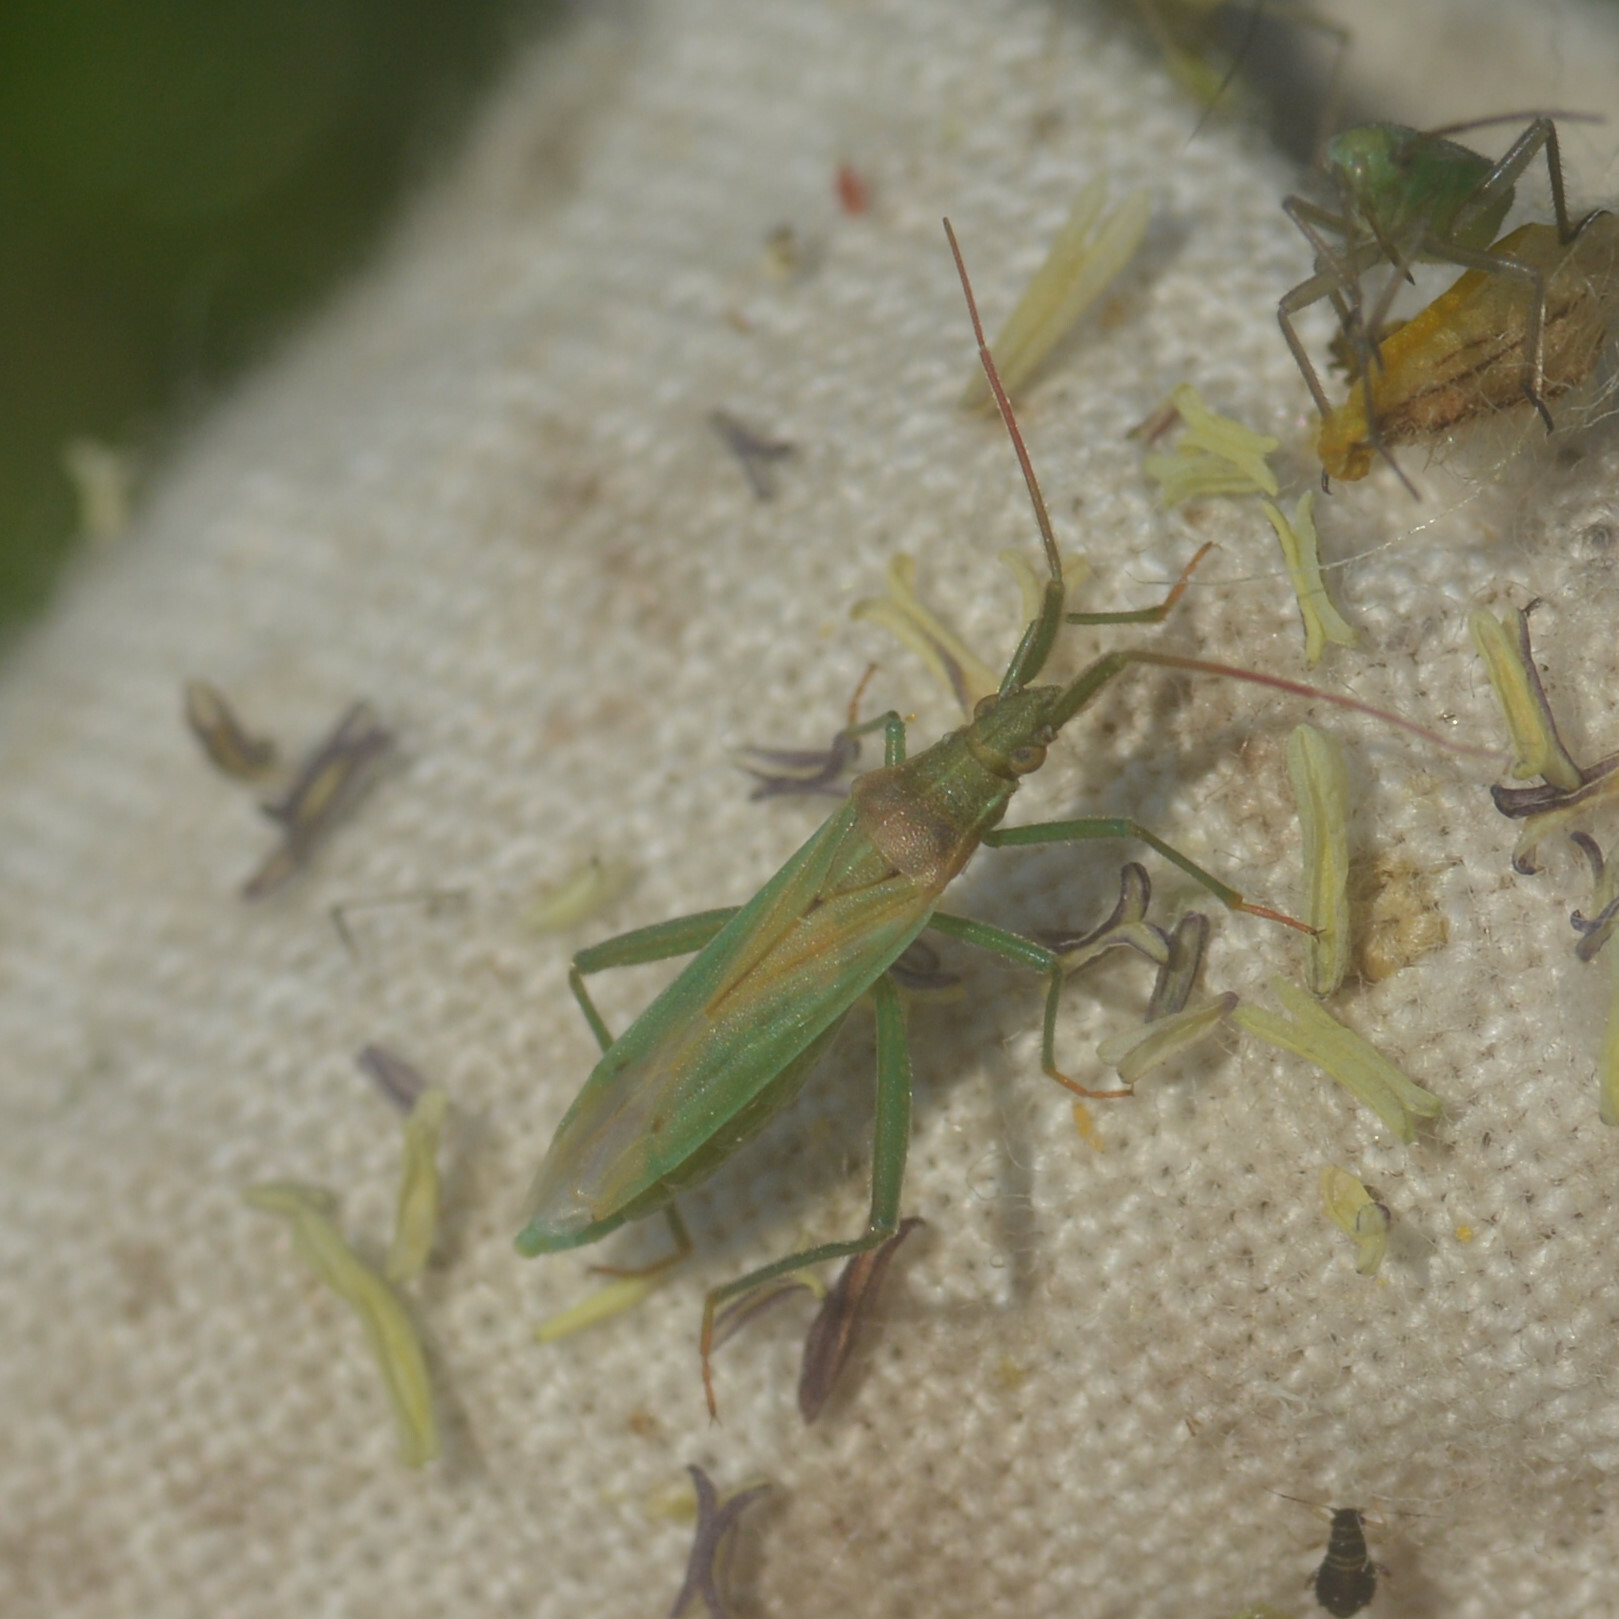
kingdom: Animalia
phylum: Arthropoda
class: Insecta
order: Hemiptera
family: Miridae
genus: Stenodema
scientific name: Stenodema laevigata
